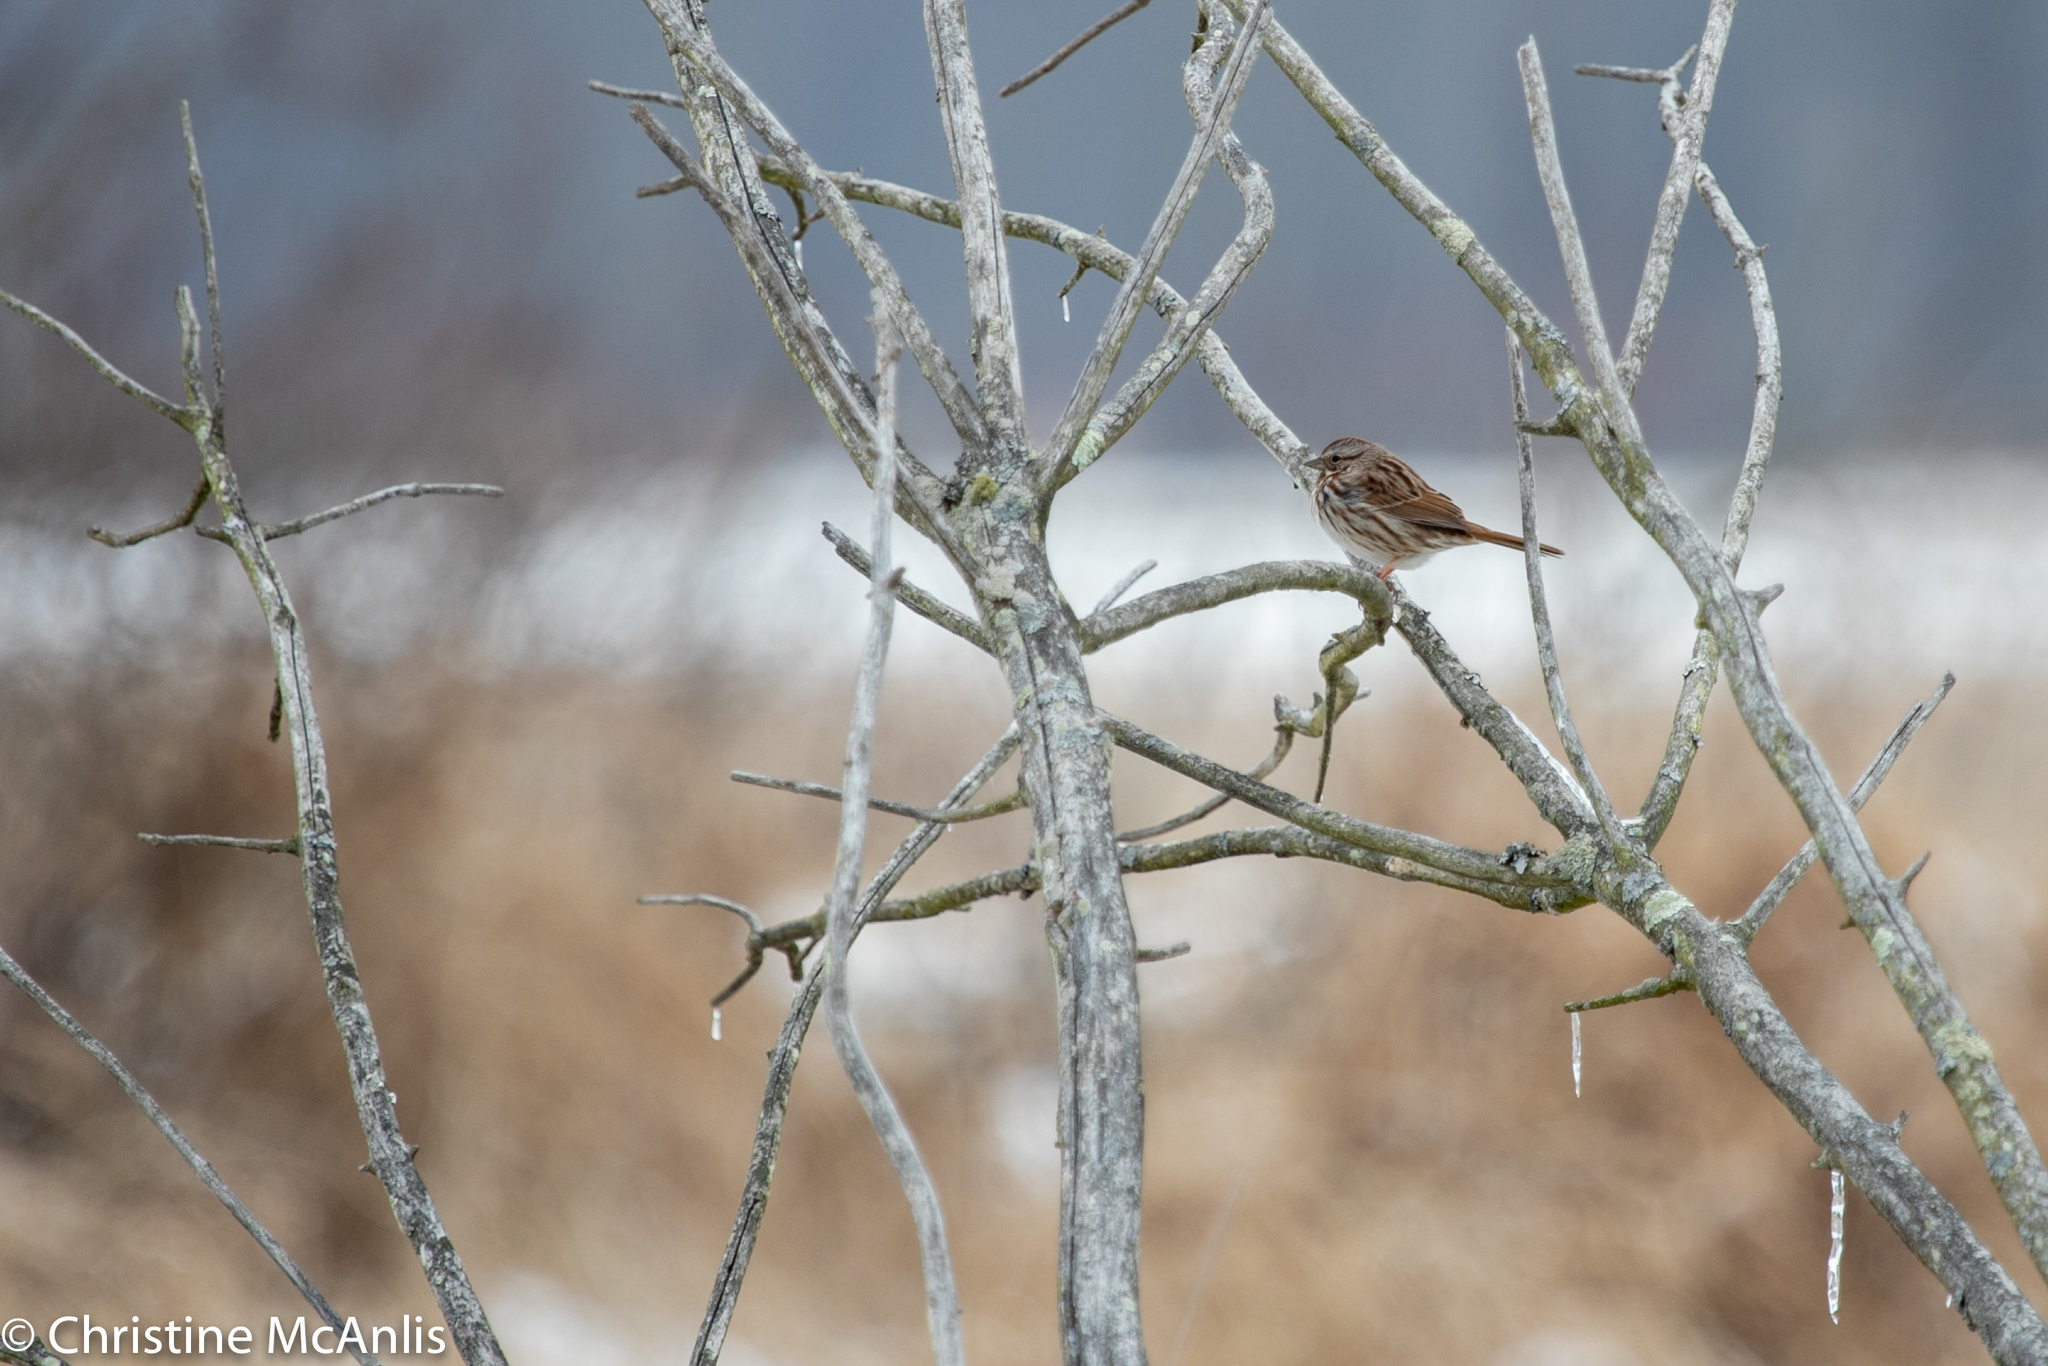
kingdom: Animalia
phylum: Chordata
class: Aves
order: Passeriformes
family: Passerellidae
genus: Melospiza
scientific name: Melospiza melodia
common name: Song sparrow
